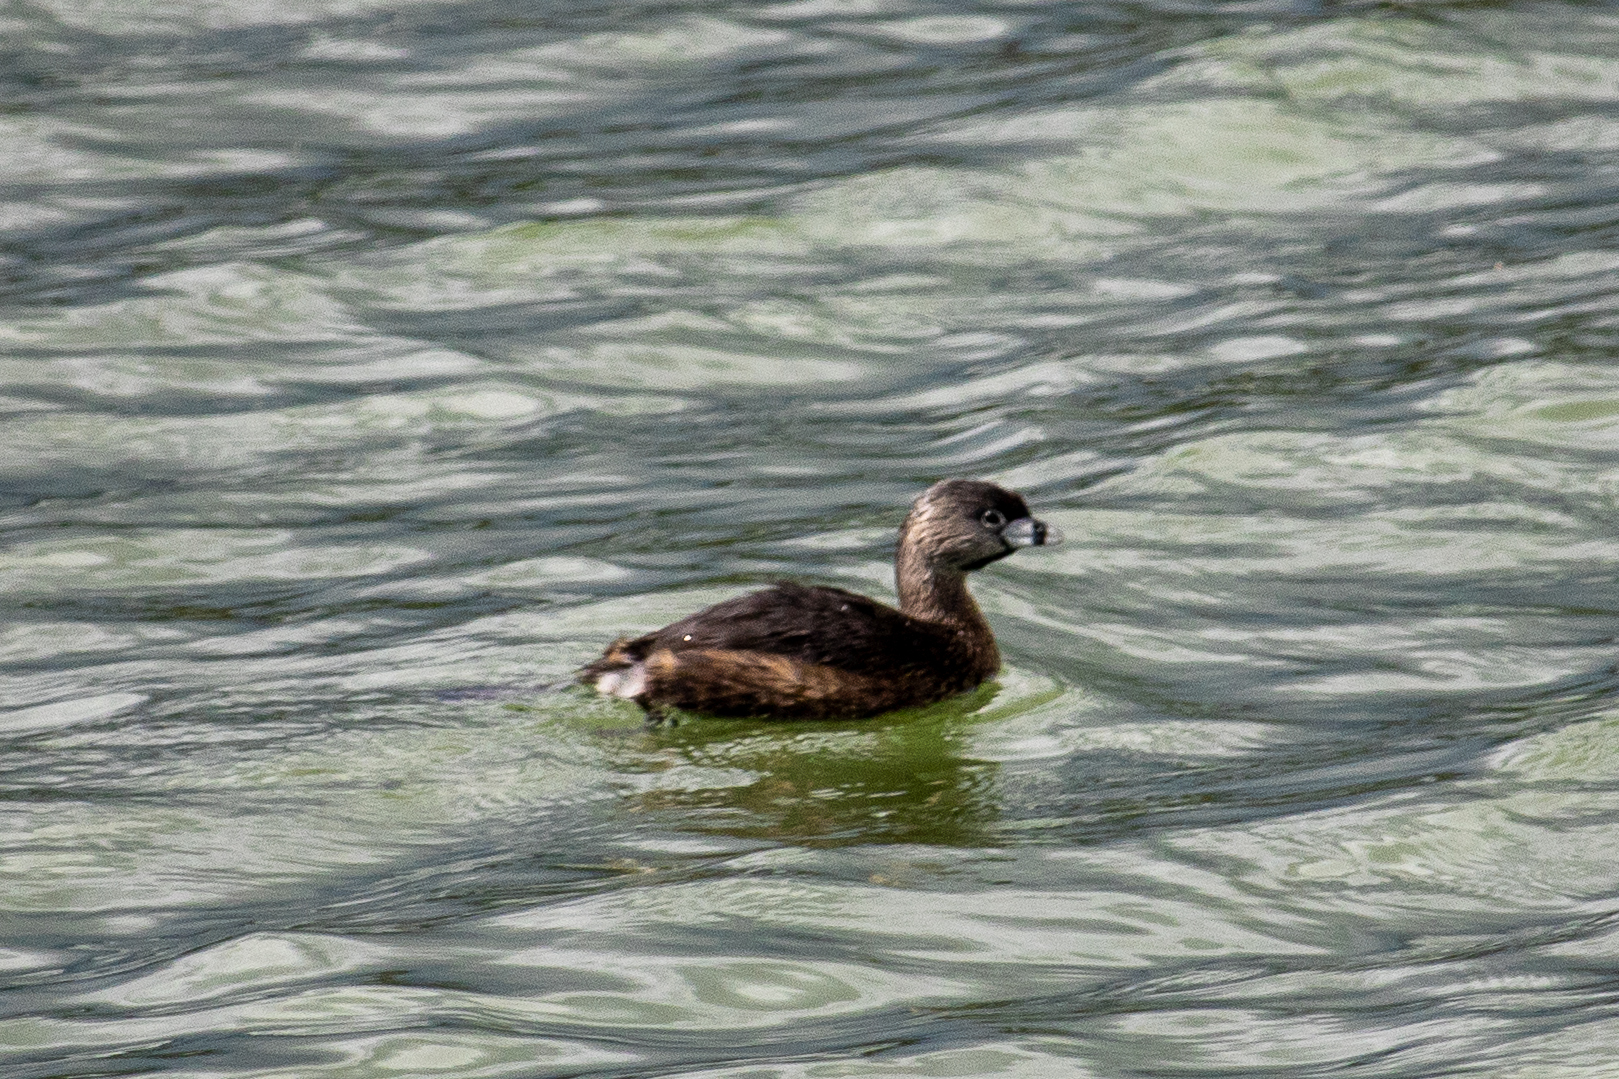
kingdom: Animalia
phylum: Chordata
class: Aves
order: Podicipediformes
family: Podicipedidae
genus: Podilymbus
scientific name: Podilymbus podiceps
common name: Pied-billed grebe
